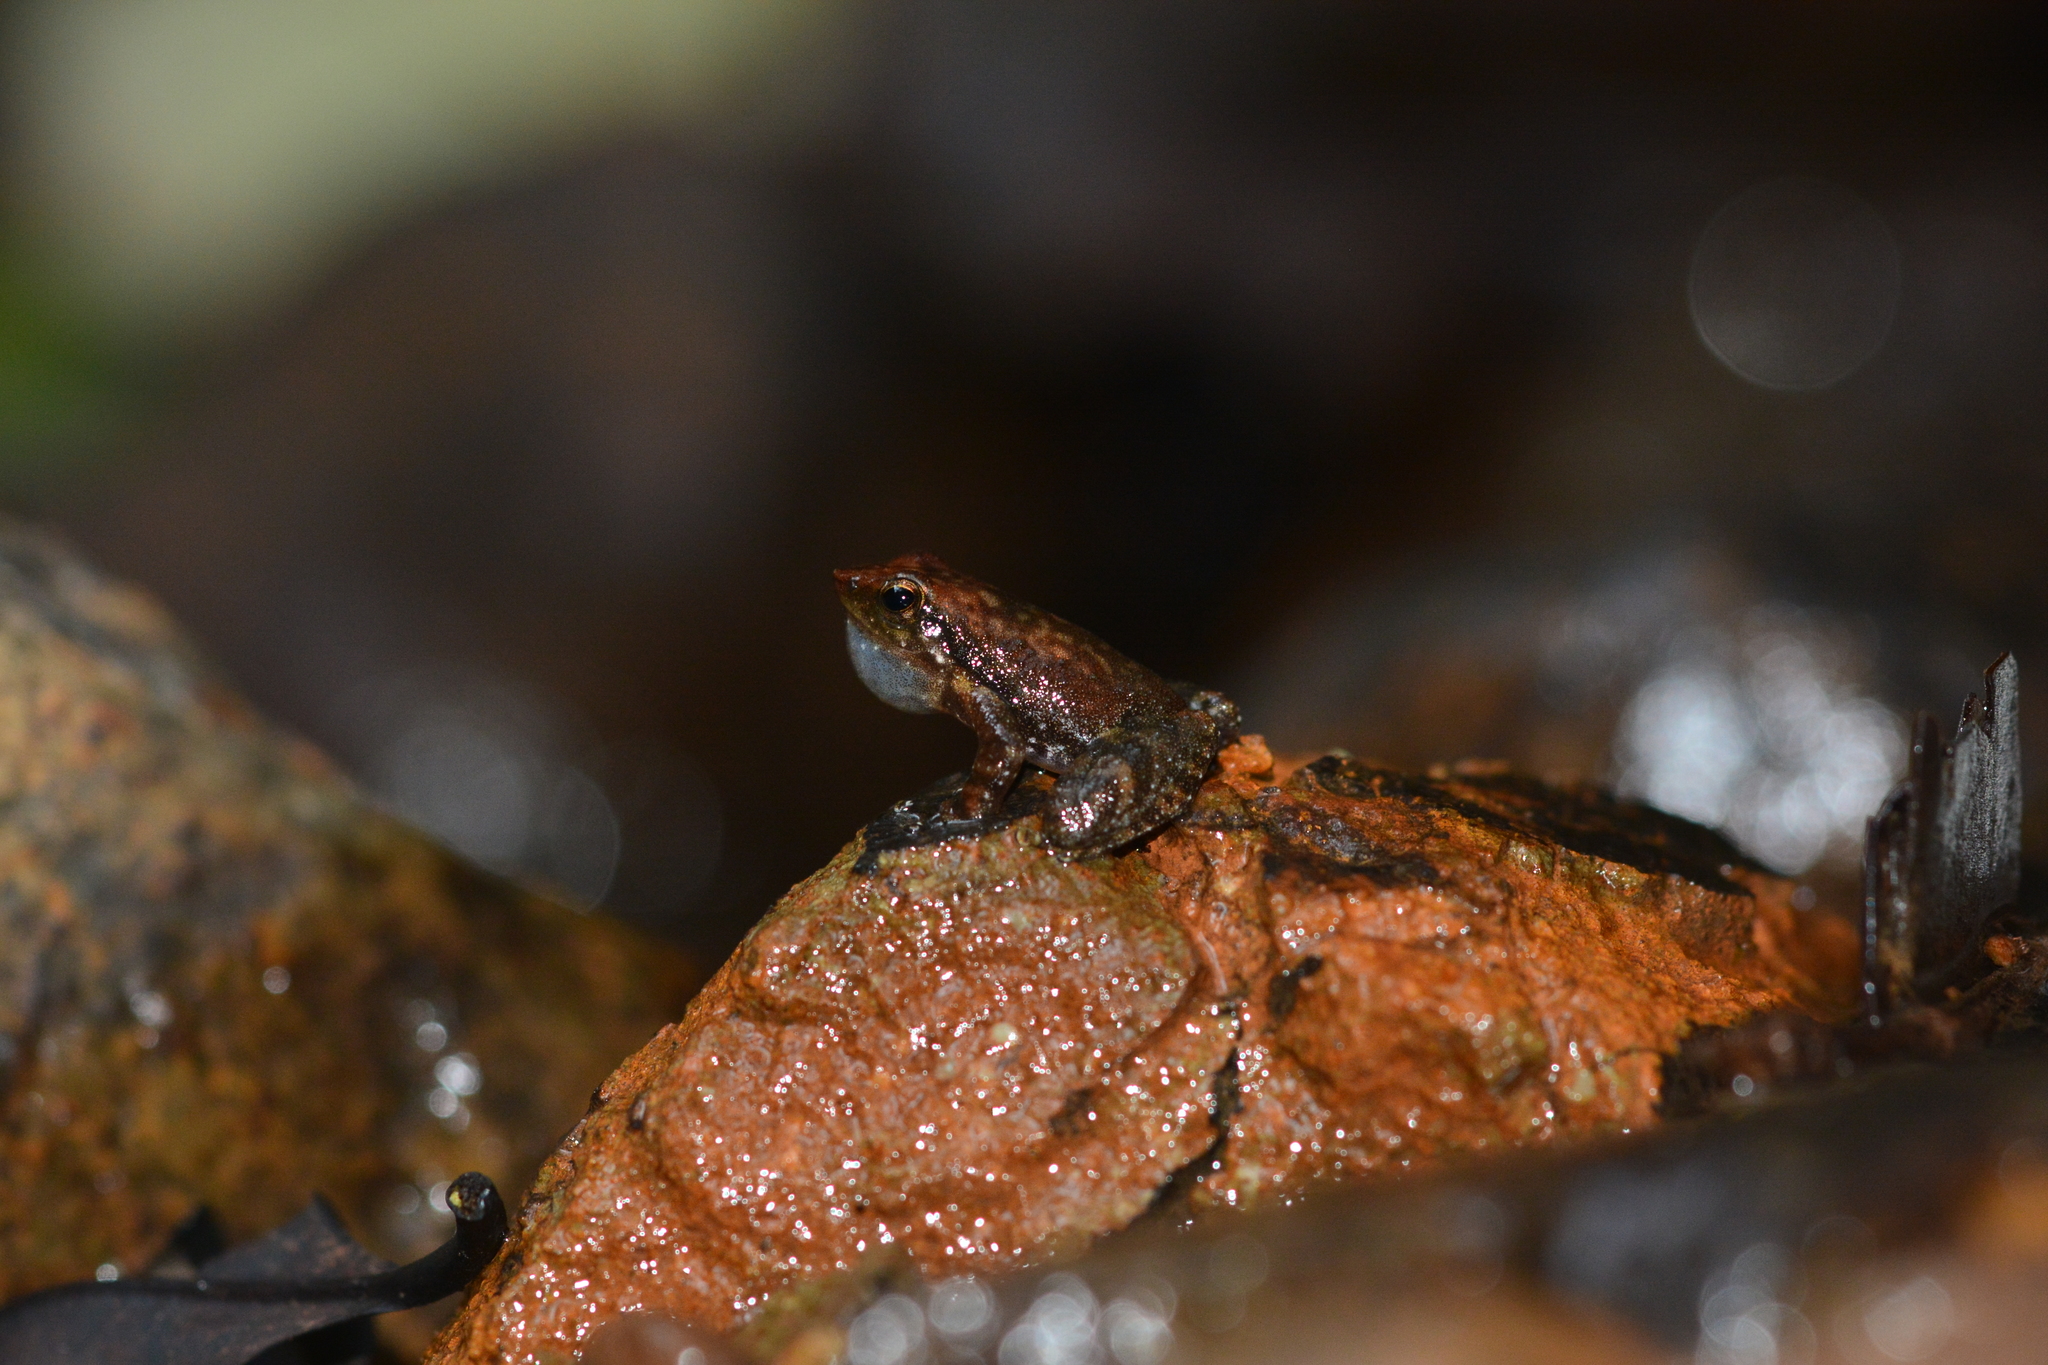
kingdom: Animalia
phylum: Chordata
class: Amphibia
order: Anura
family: Micrixalidae
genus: Micrixalus
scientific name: Micrixalus uttaraghati
